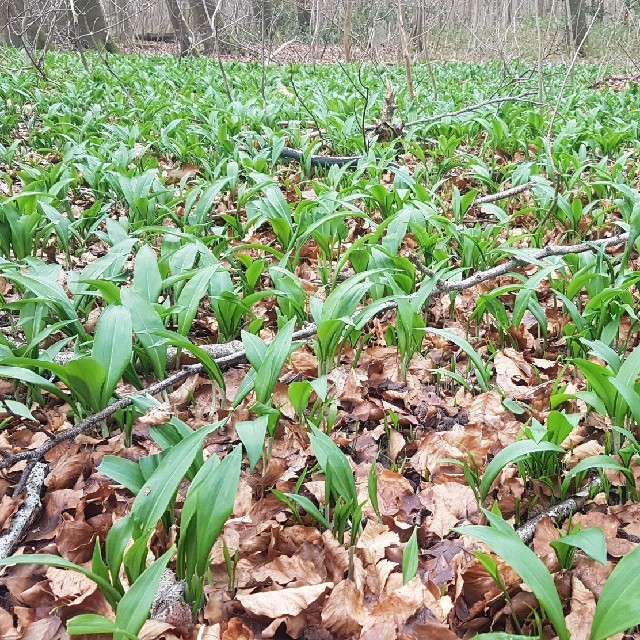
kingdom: Plantae
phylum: Tracheophyta
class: Liliopsida
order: Asparagales
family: Amaryllidaceae
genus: Allium
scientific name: Allium ursinum
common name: Ramsons
